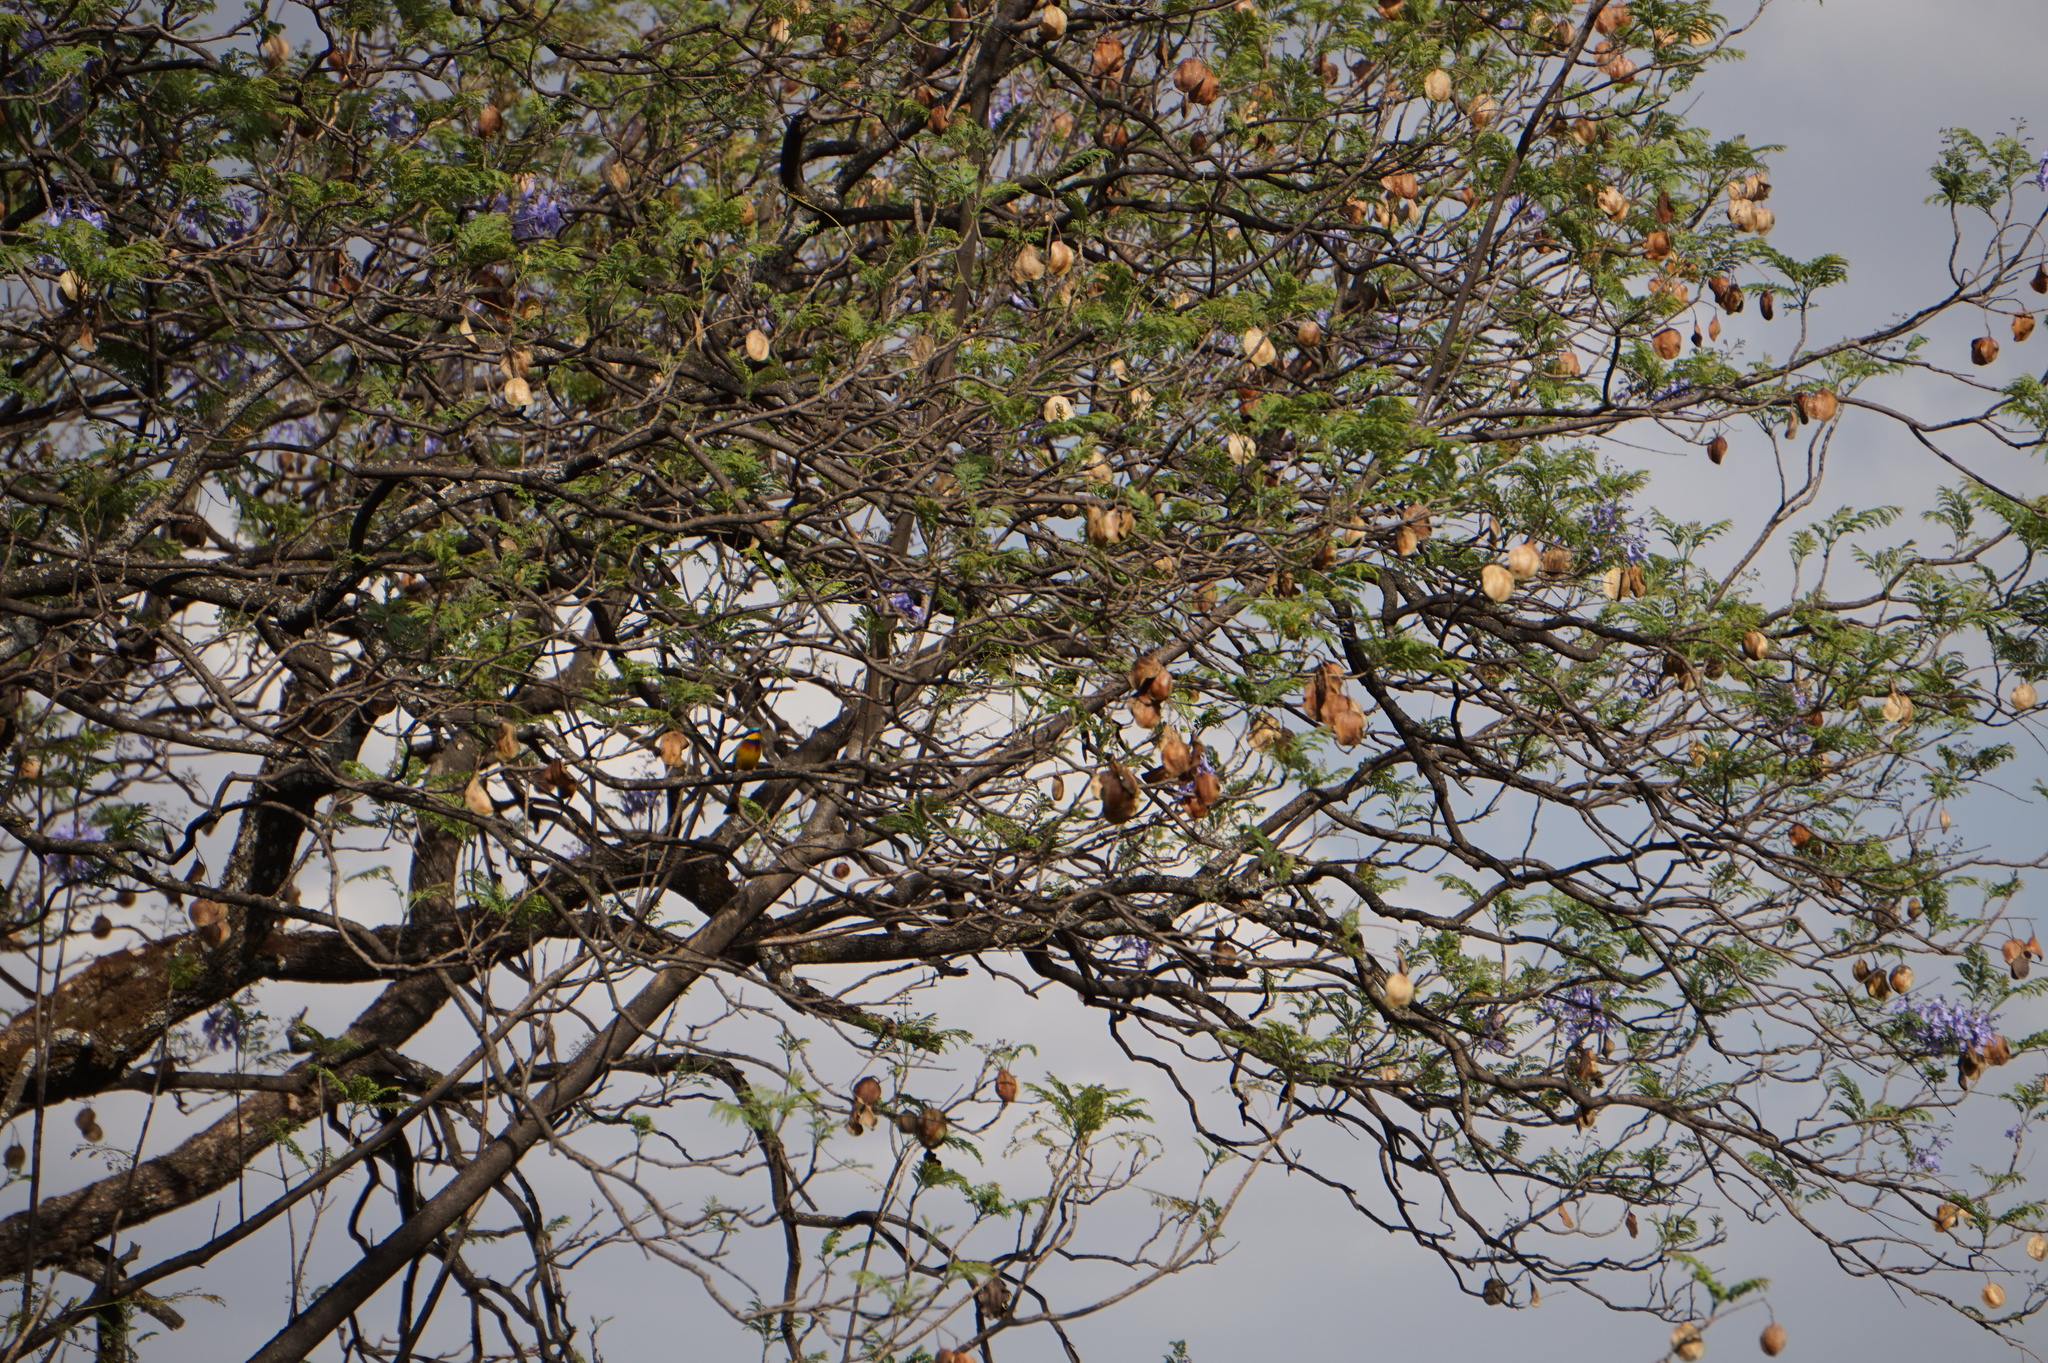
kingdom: Plantae
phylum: Tracheophyta
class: Magnoliopsida
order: Lamiales
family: Bignoniaceae
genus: Jacaranda
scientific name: Jacaranda mimosifolia
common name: Black poui
